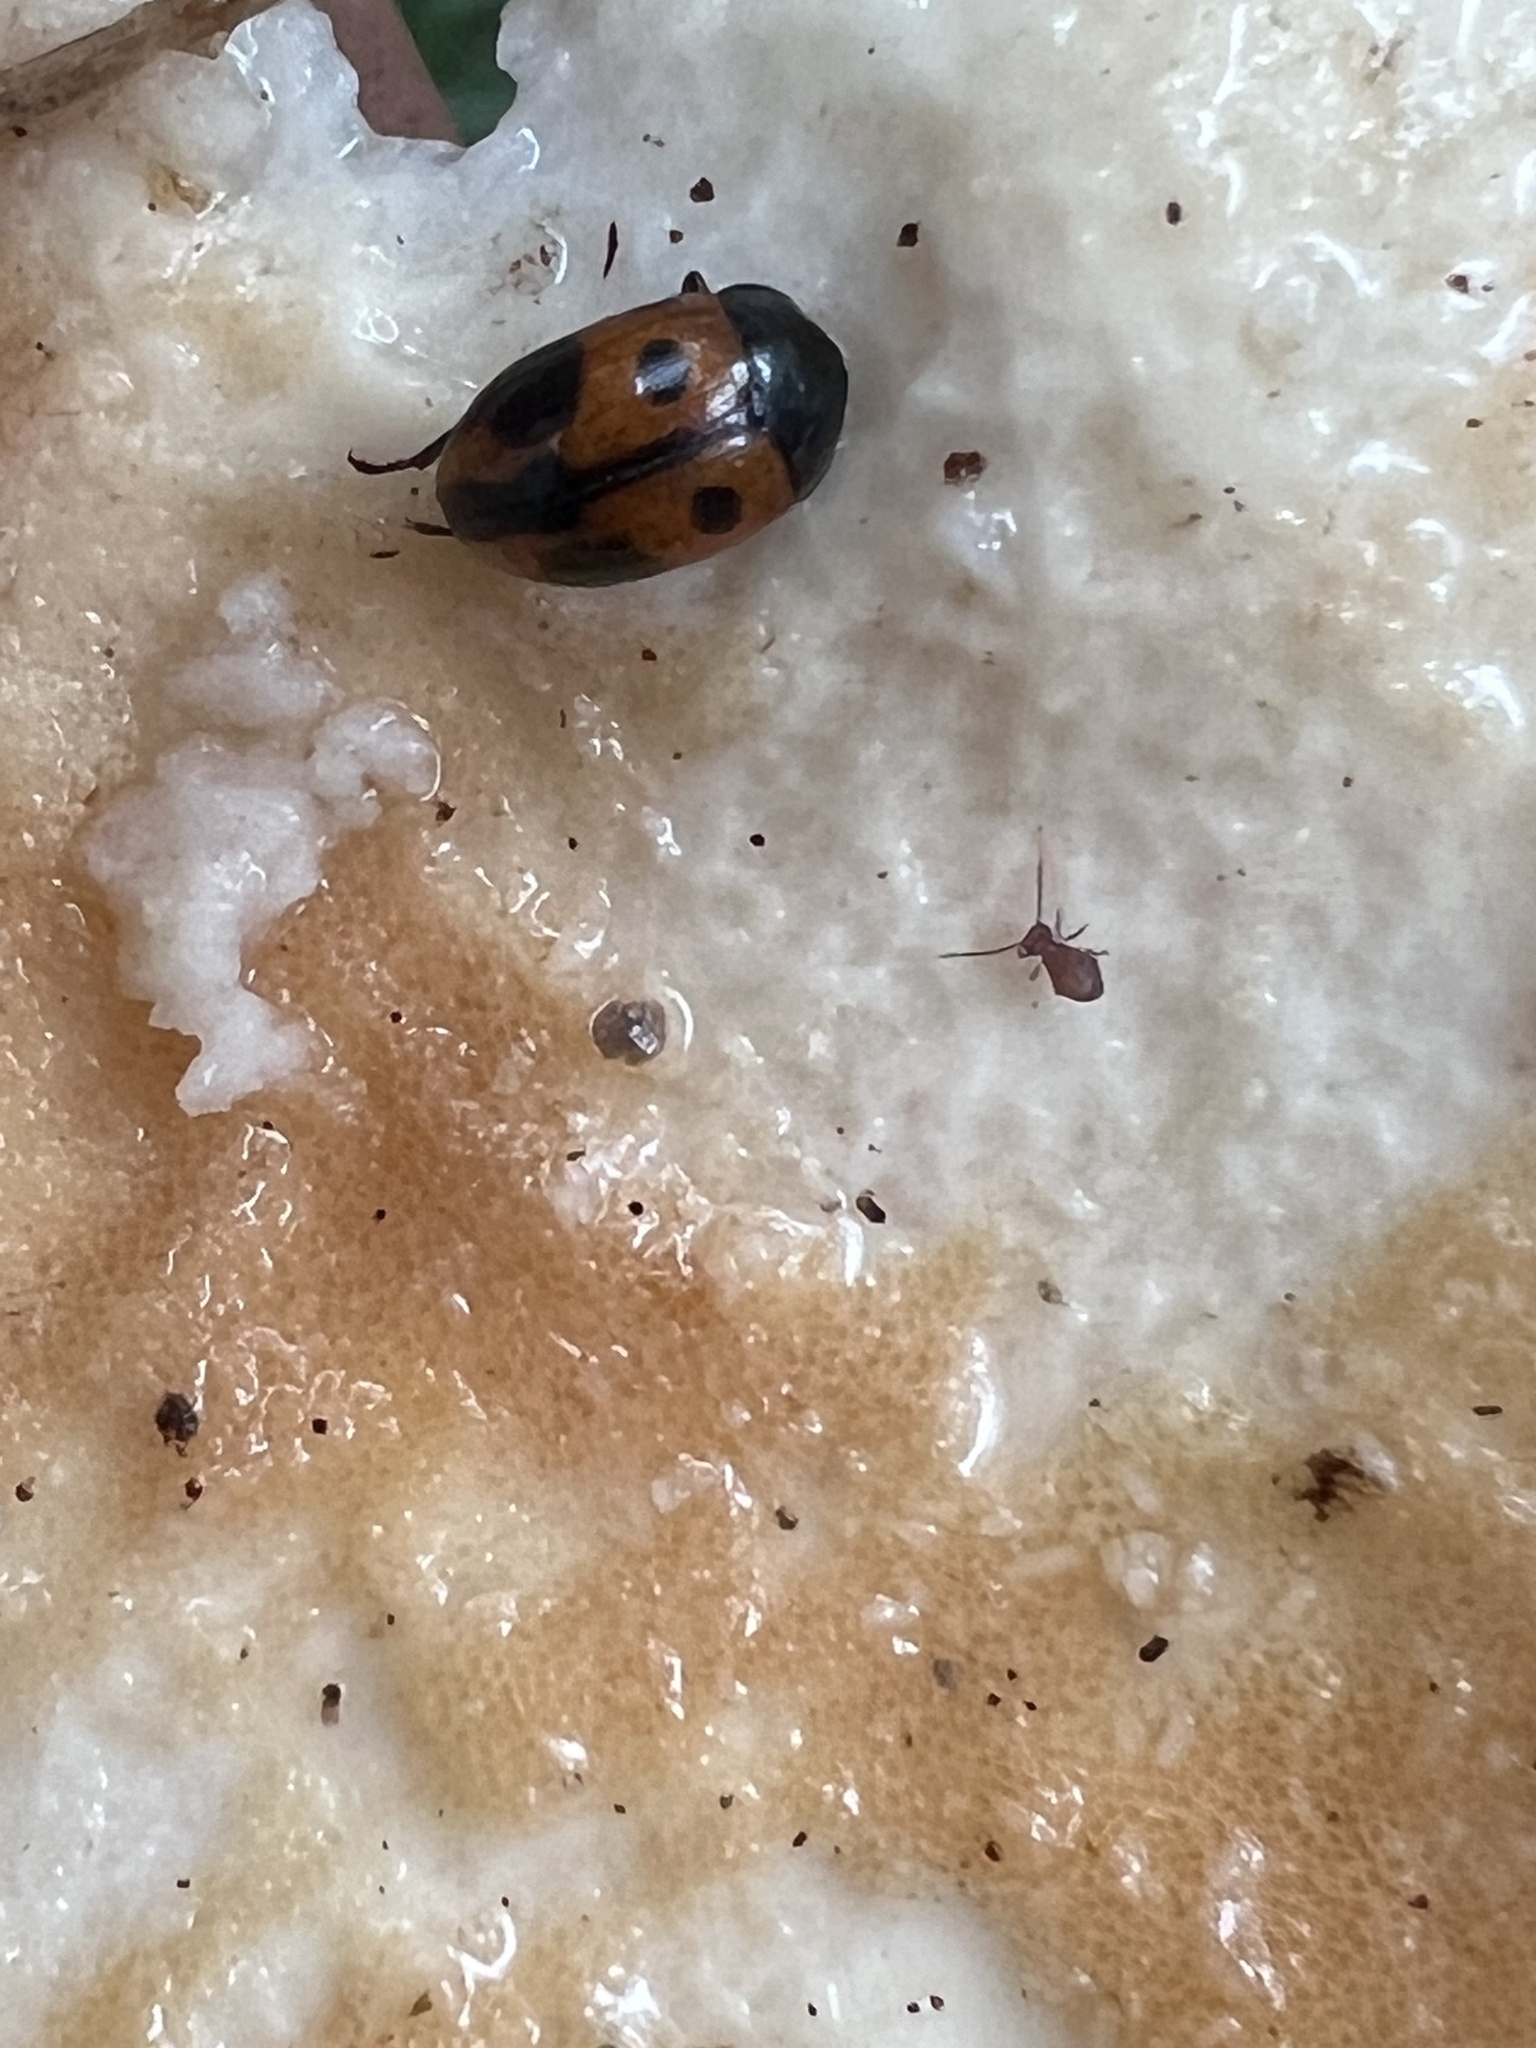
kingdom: Animalia
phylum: Arthropoda
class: Insecta
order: Coleoptera
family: Tenebrionidae
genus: Diaperis
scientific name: Diaperis maculata
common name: Darkling beetle
